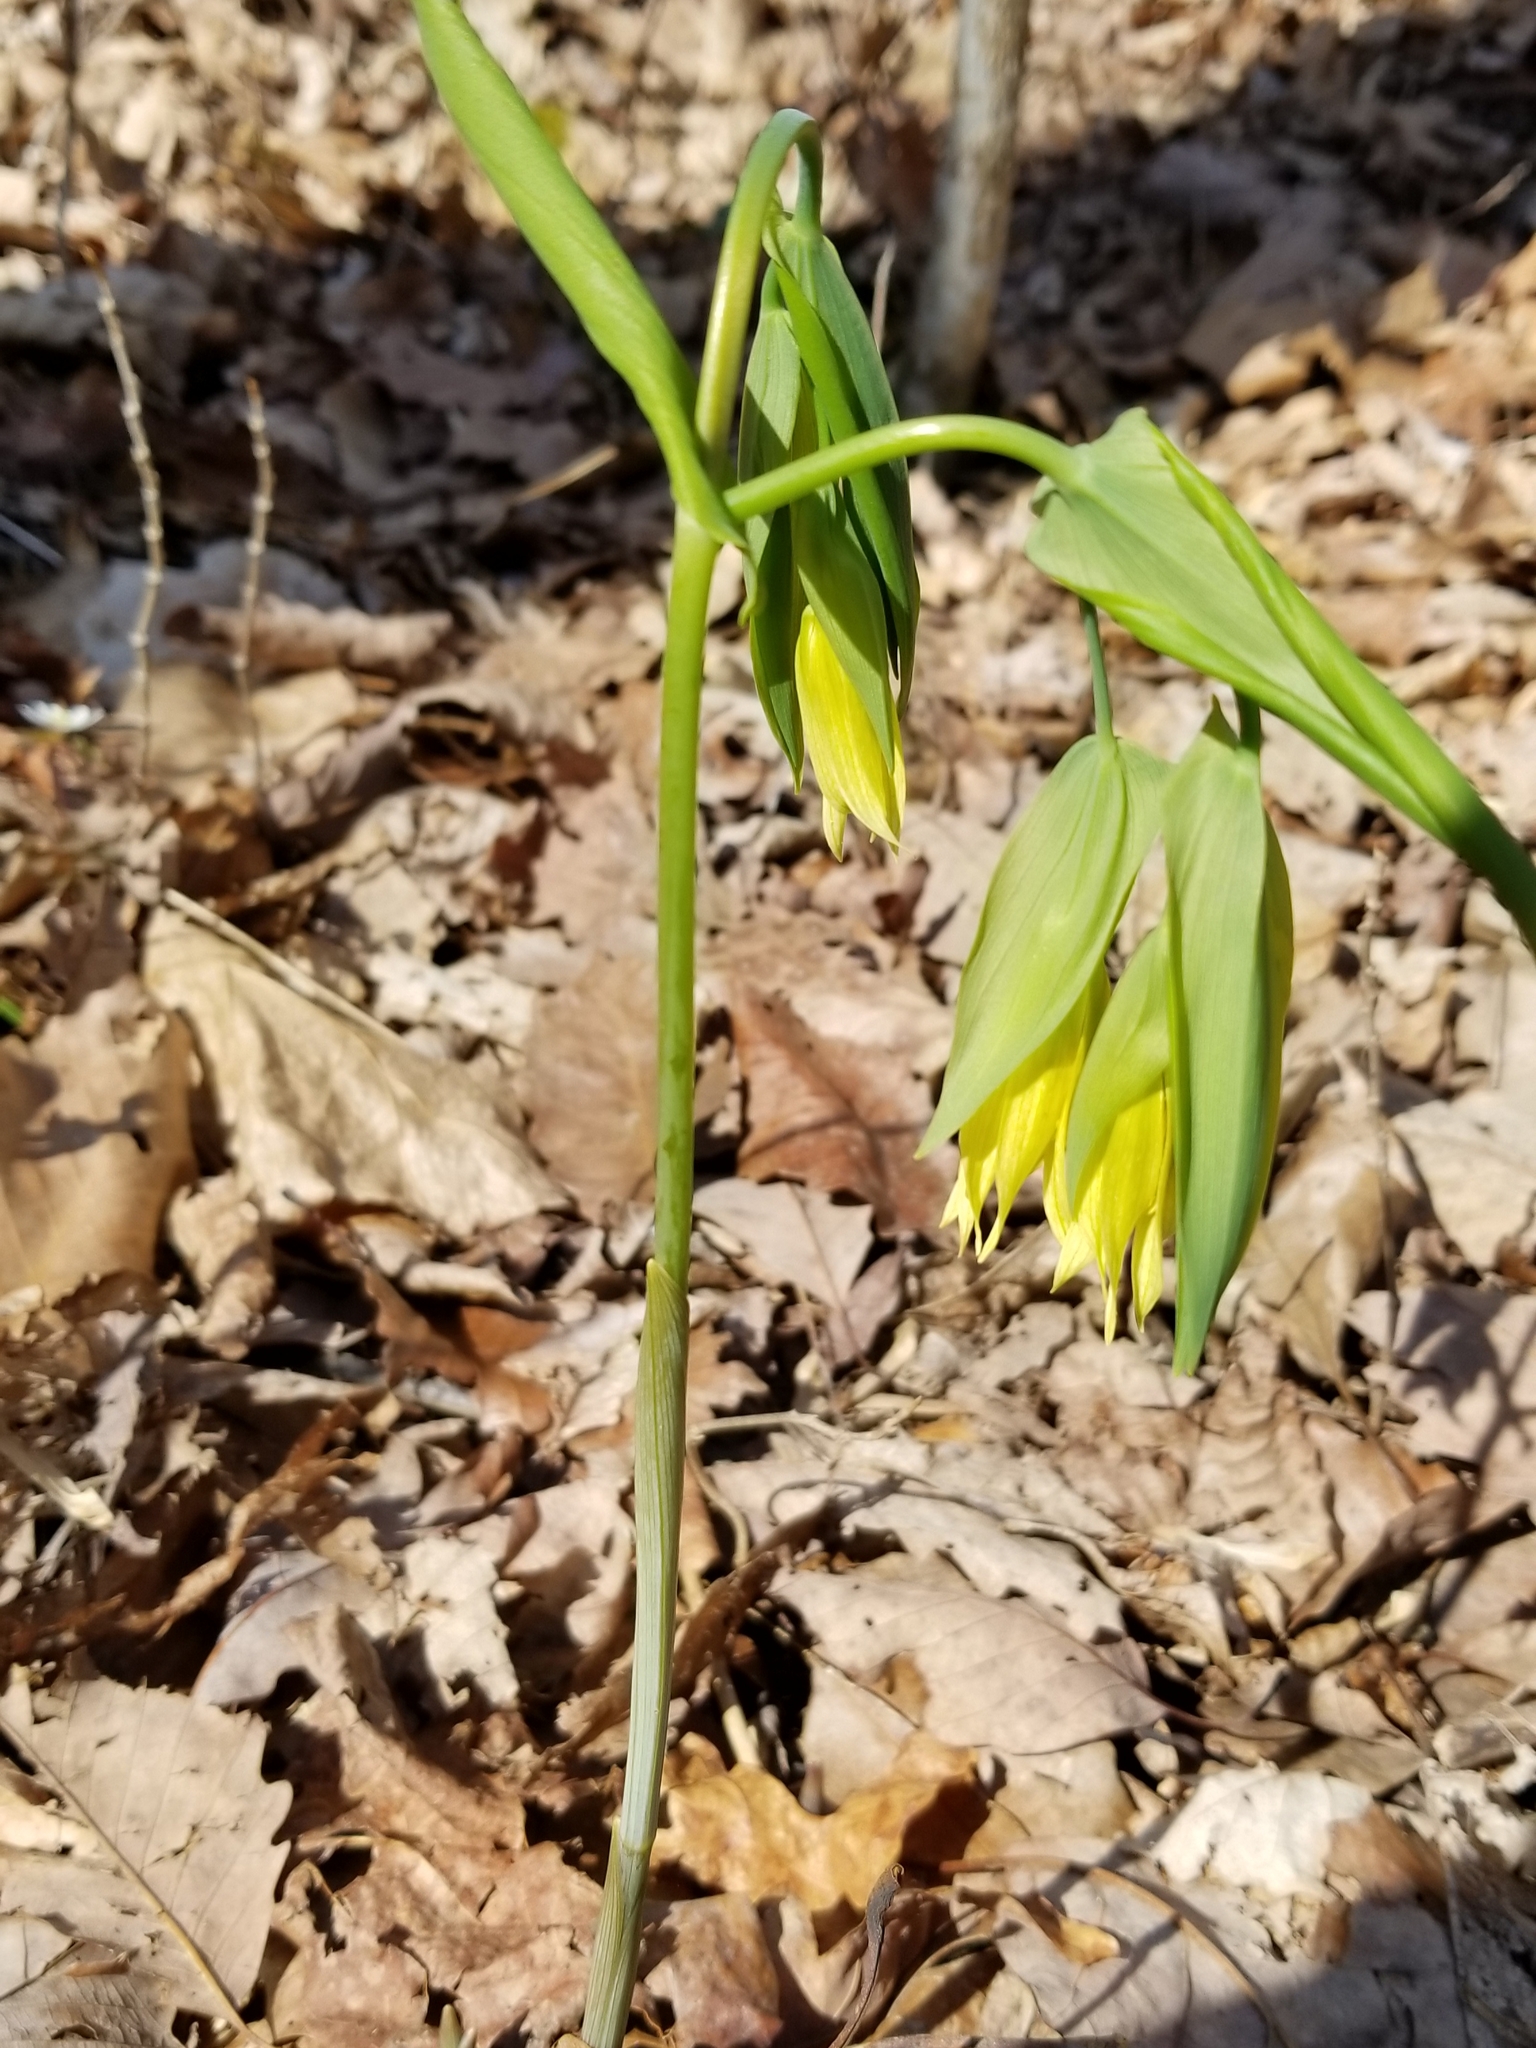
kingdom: Plantae
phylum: Tracheophyta
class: Liliopsida
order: Liliales
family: Colchicaceae
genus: Uvularia
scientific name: Uvularia grandiflora
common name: Bellwort
